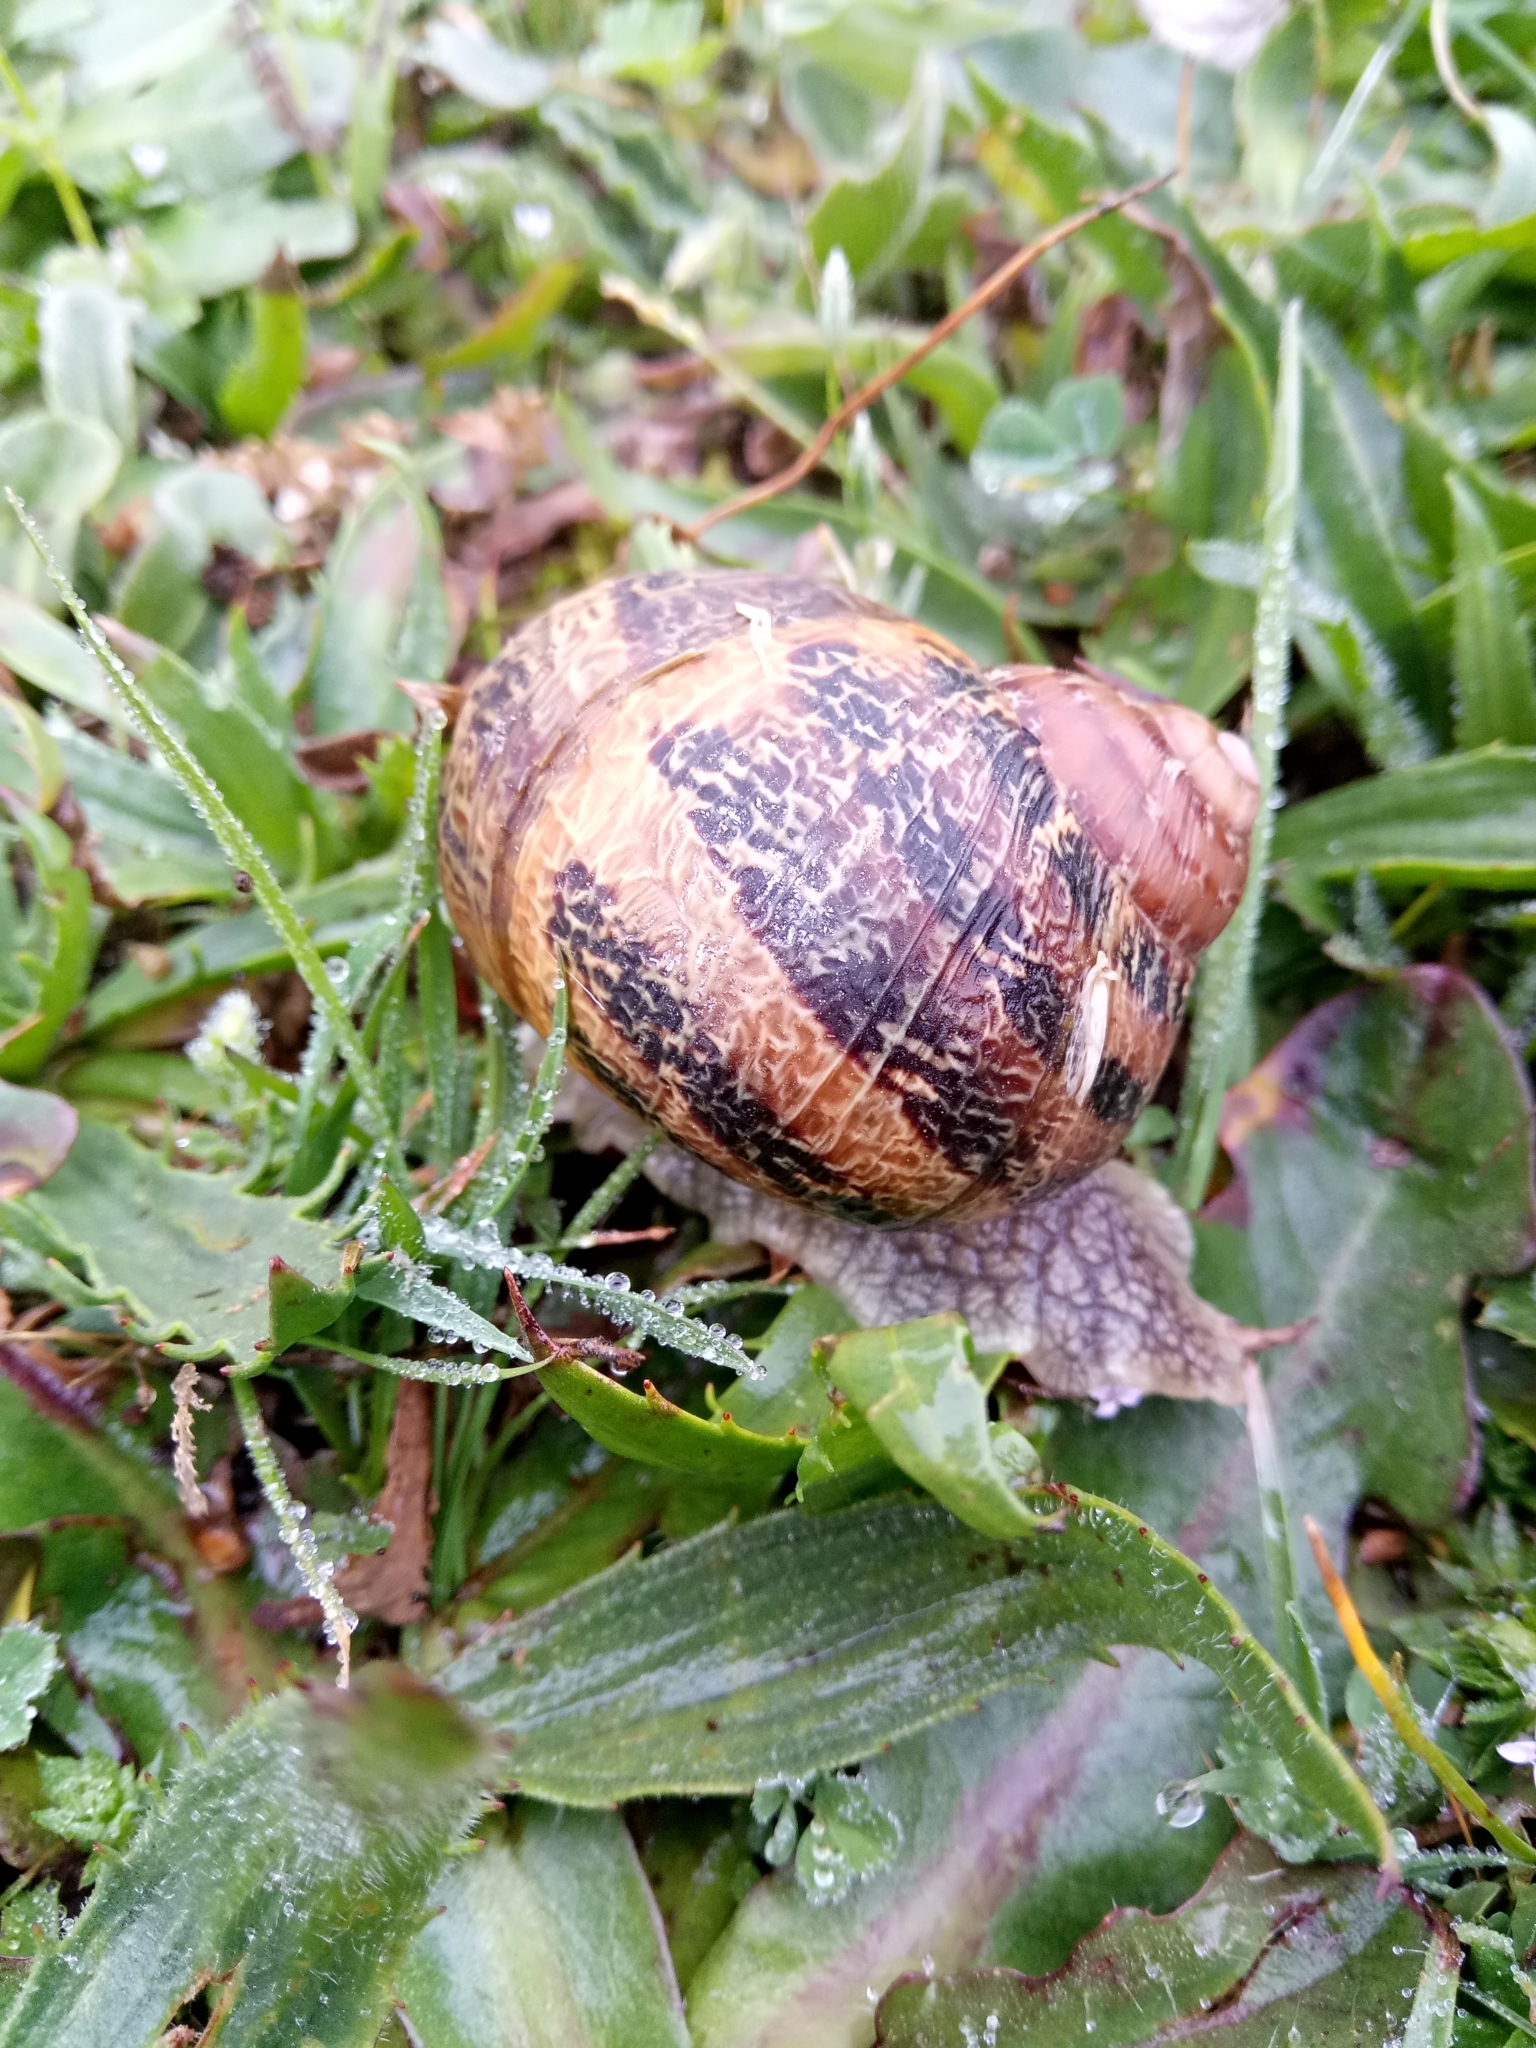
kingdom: Animalia
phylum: Mollusca
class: Gastropoda
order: Stylommatophora
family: Helicidae
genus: Cornu
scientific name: Cornu aspersum
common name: Brown garden snail
